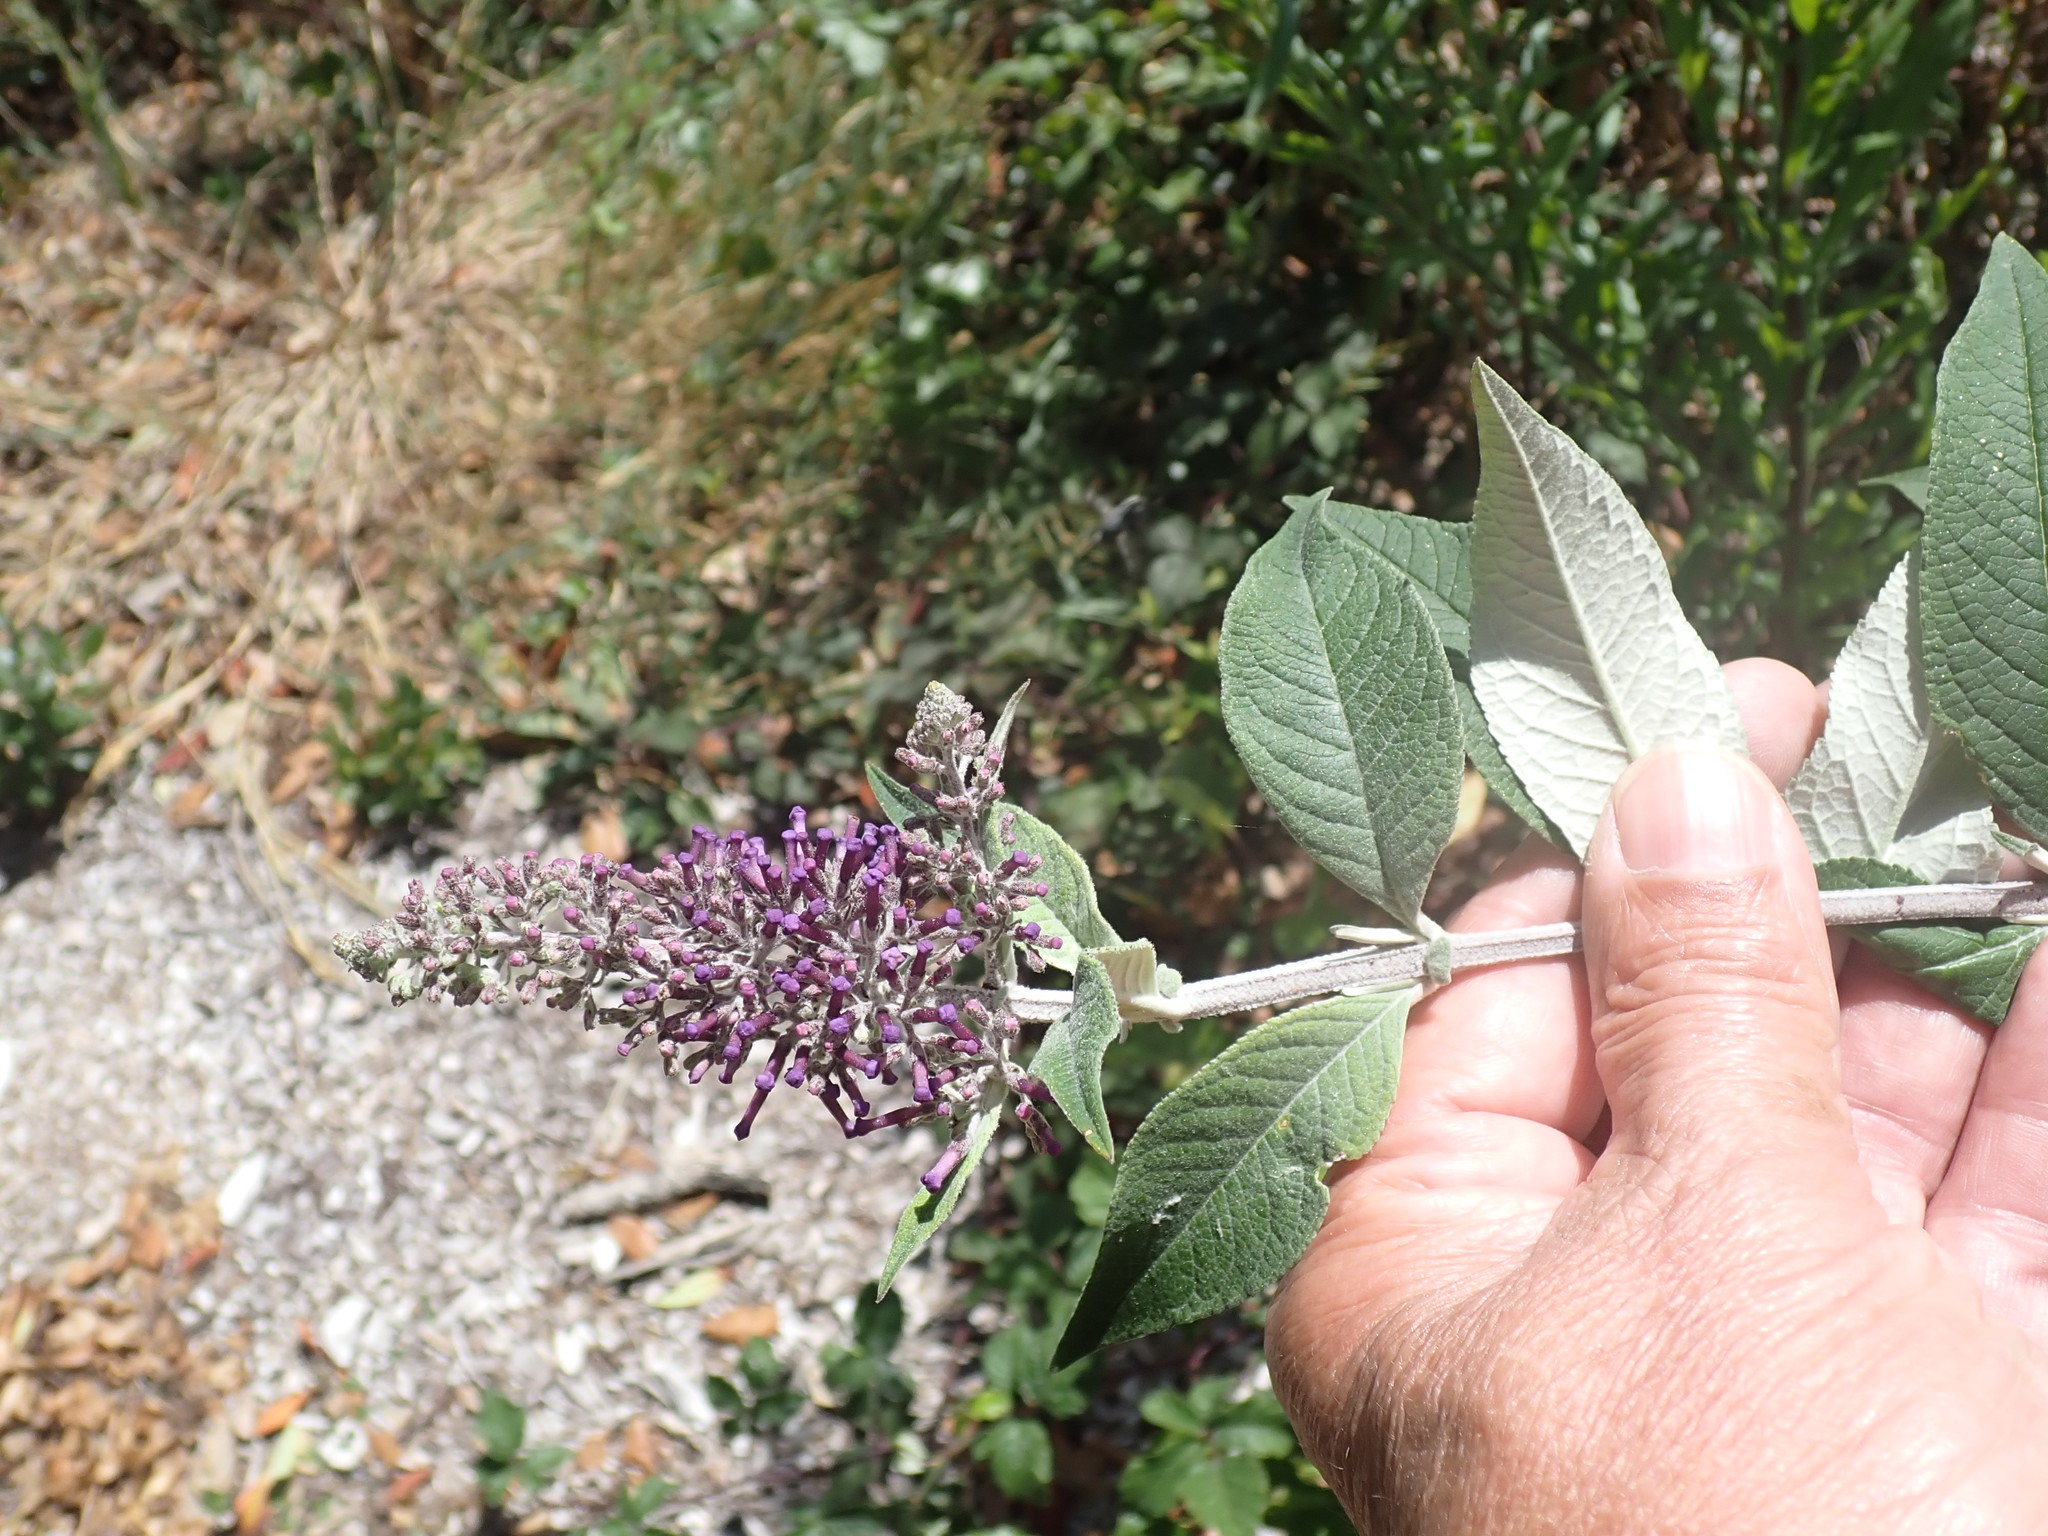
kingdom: Plantae
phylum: Tracheophyta
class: Magnoliopsida
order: Lamiales
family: Scrophulariaceae
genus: Buddleja
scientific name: Buddleja davidii
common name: Butterfly-bush
